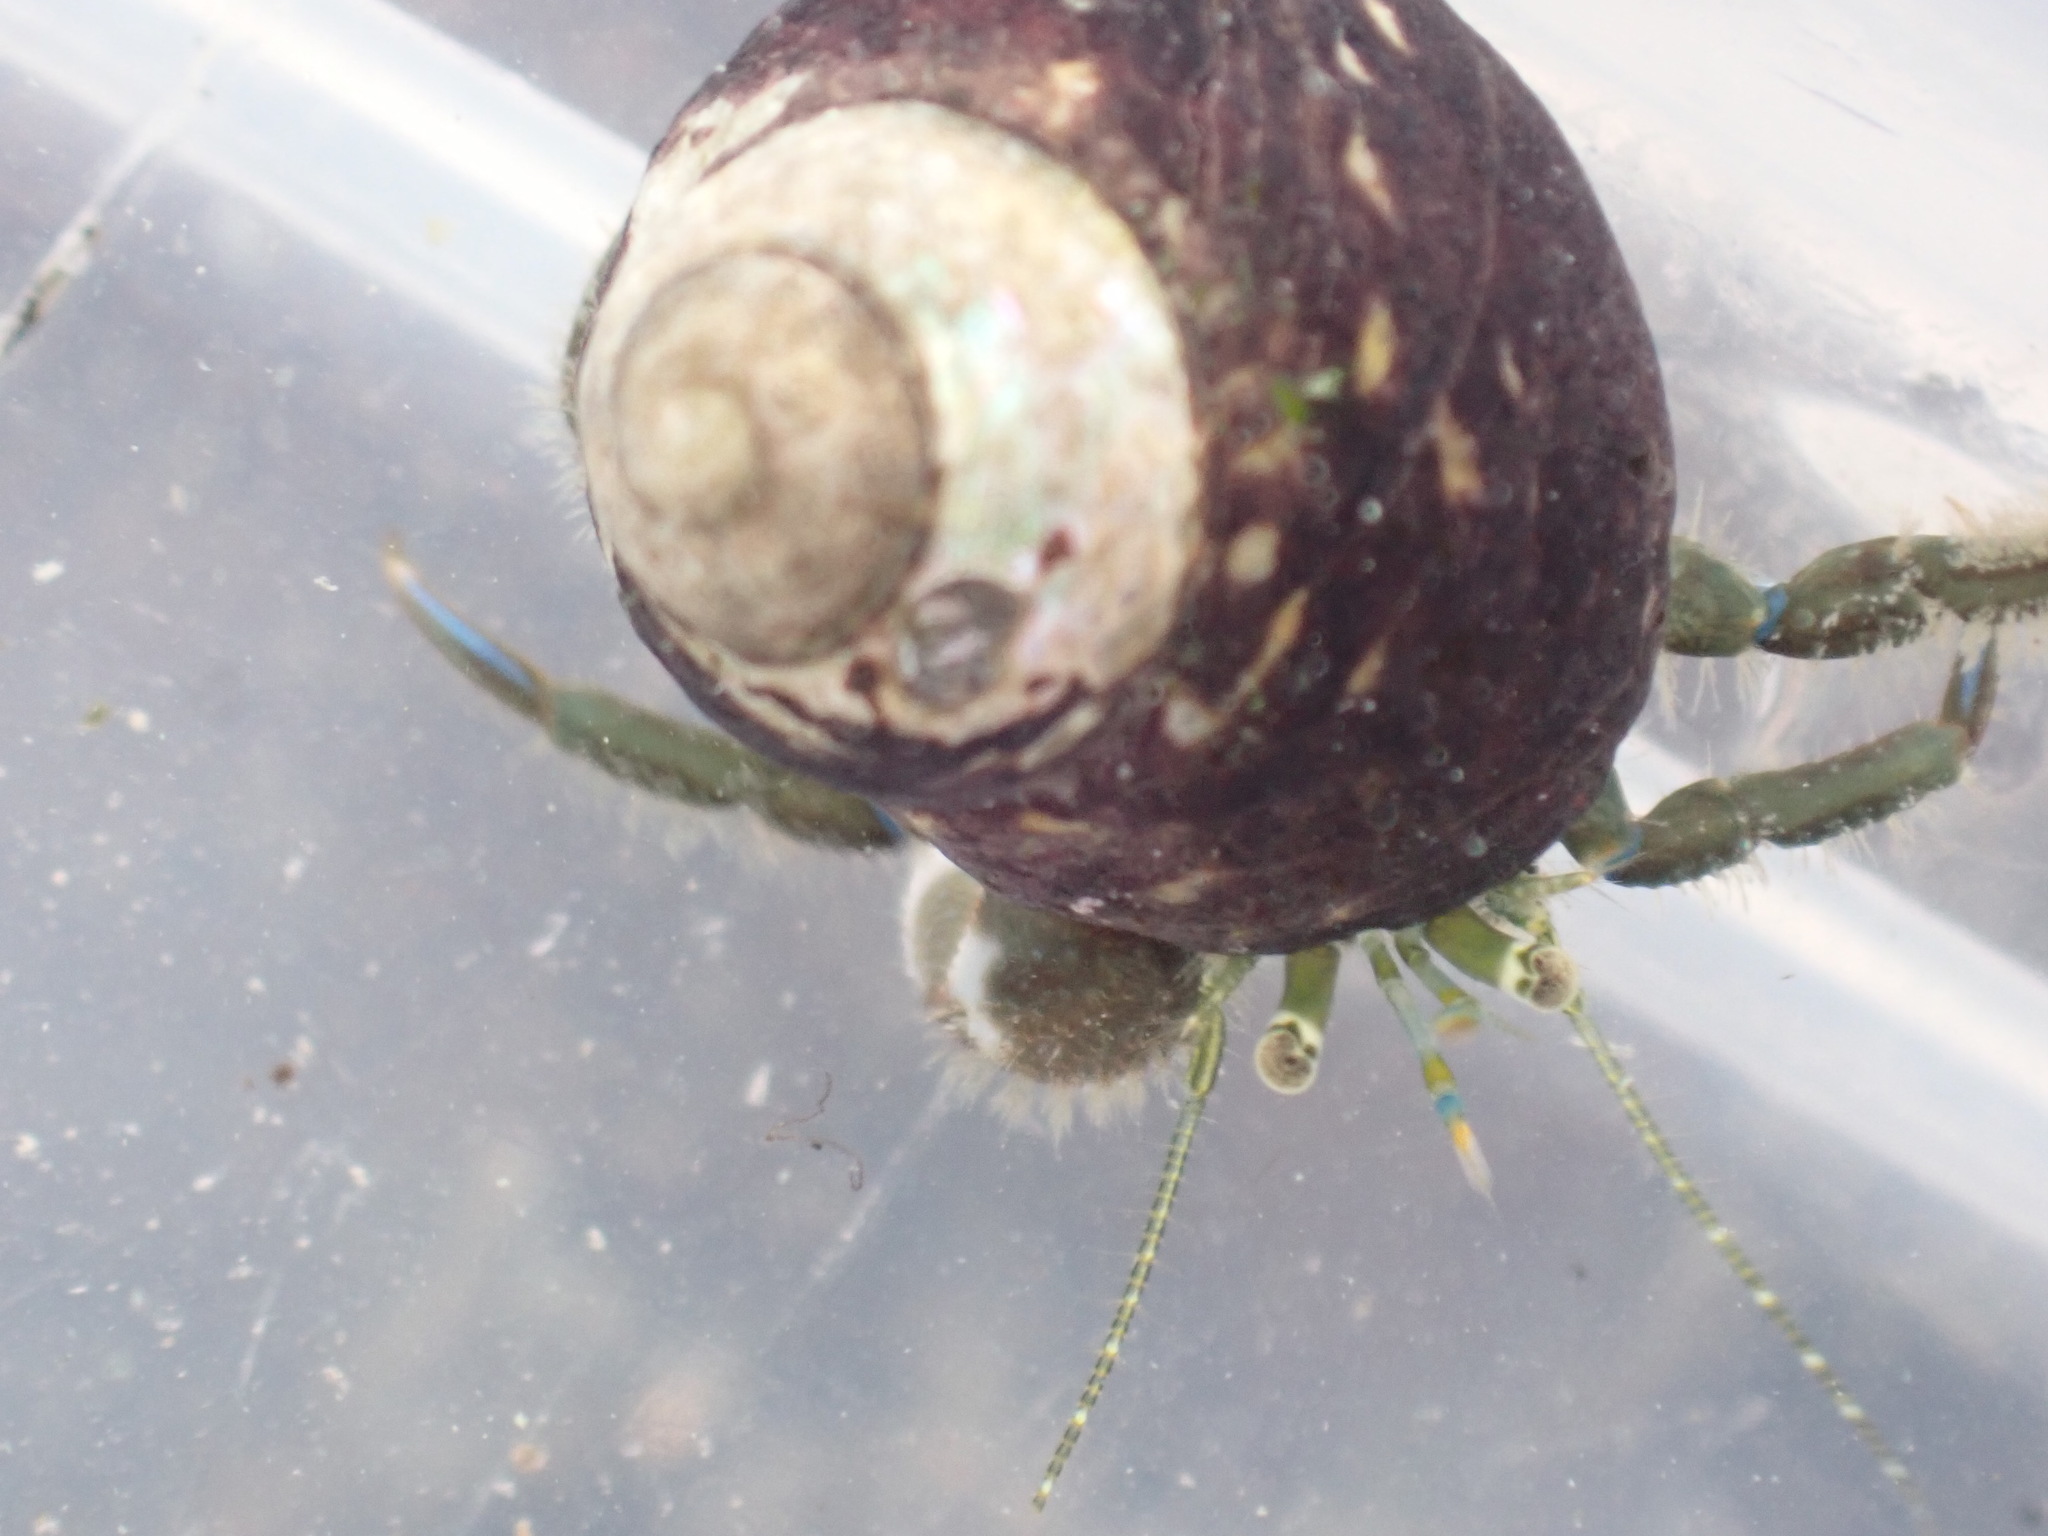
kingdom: Animalia
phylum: Arthropoda
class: Malacostraca
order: Decapoda
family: Paguridae
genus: Pagurus
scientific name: Pagurus novizealandiae
